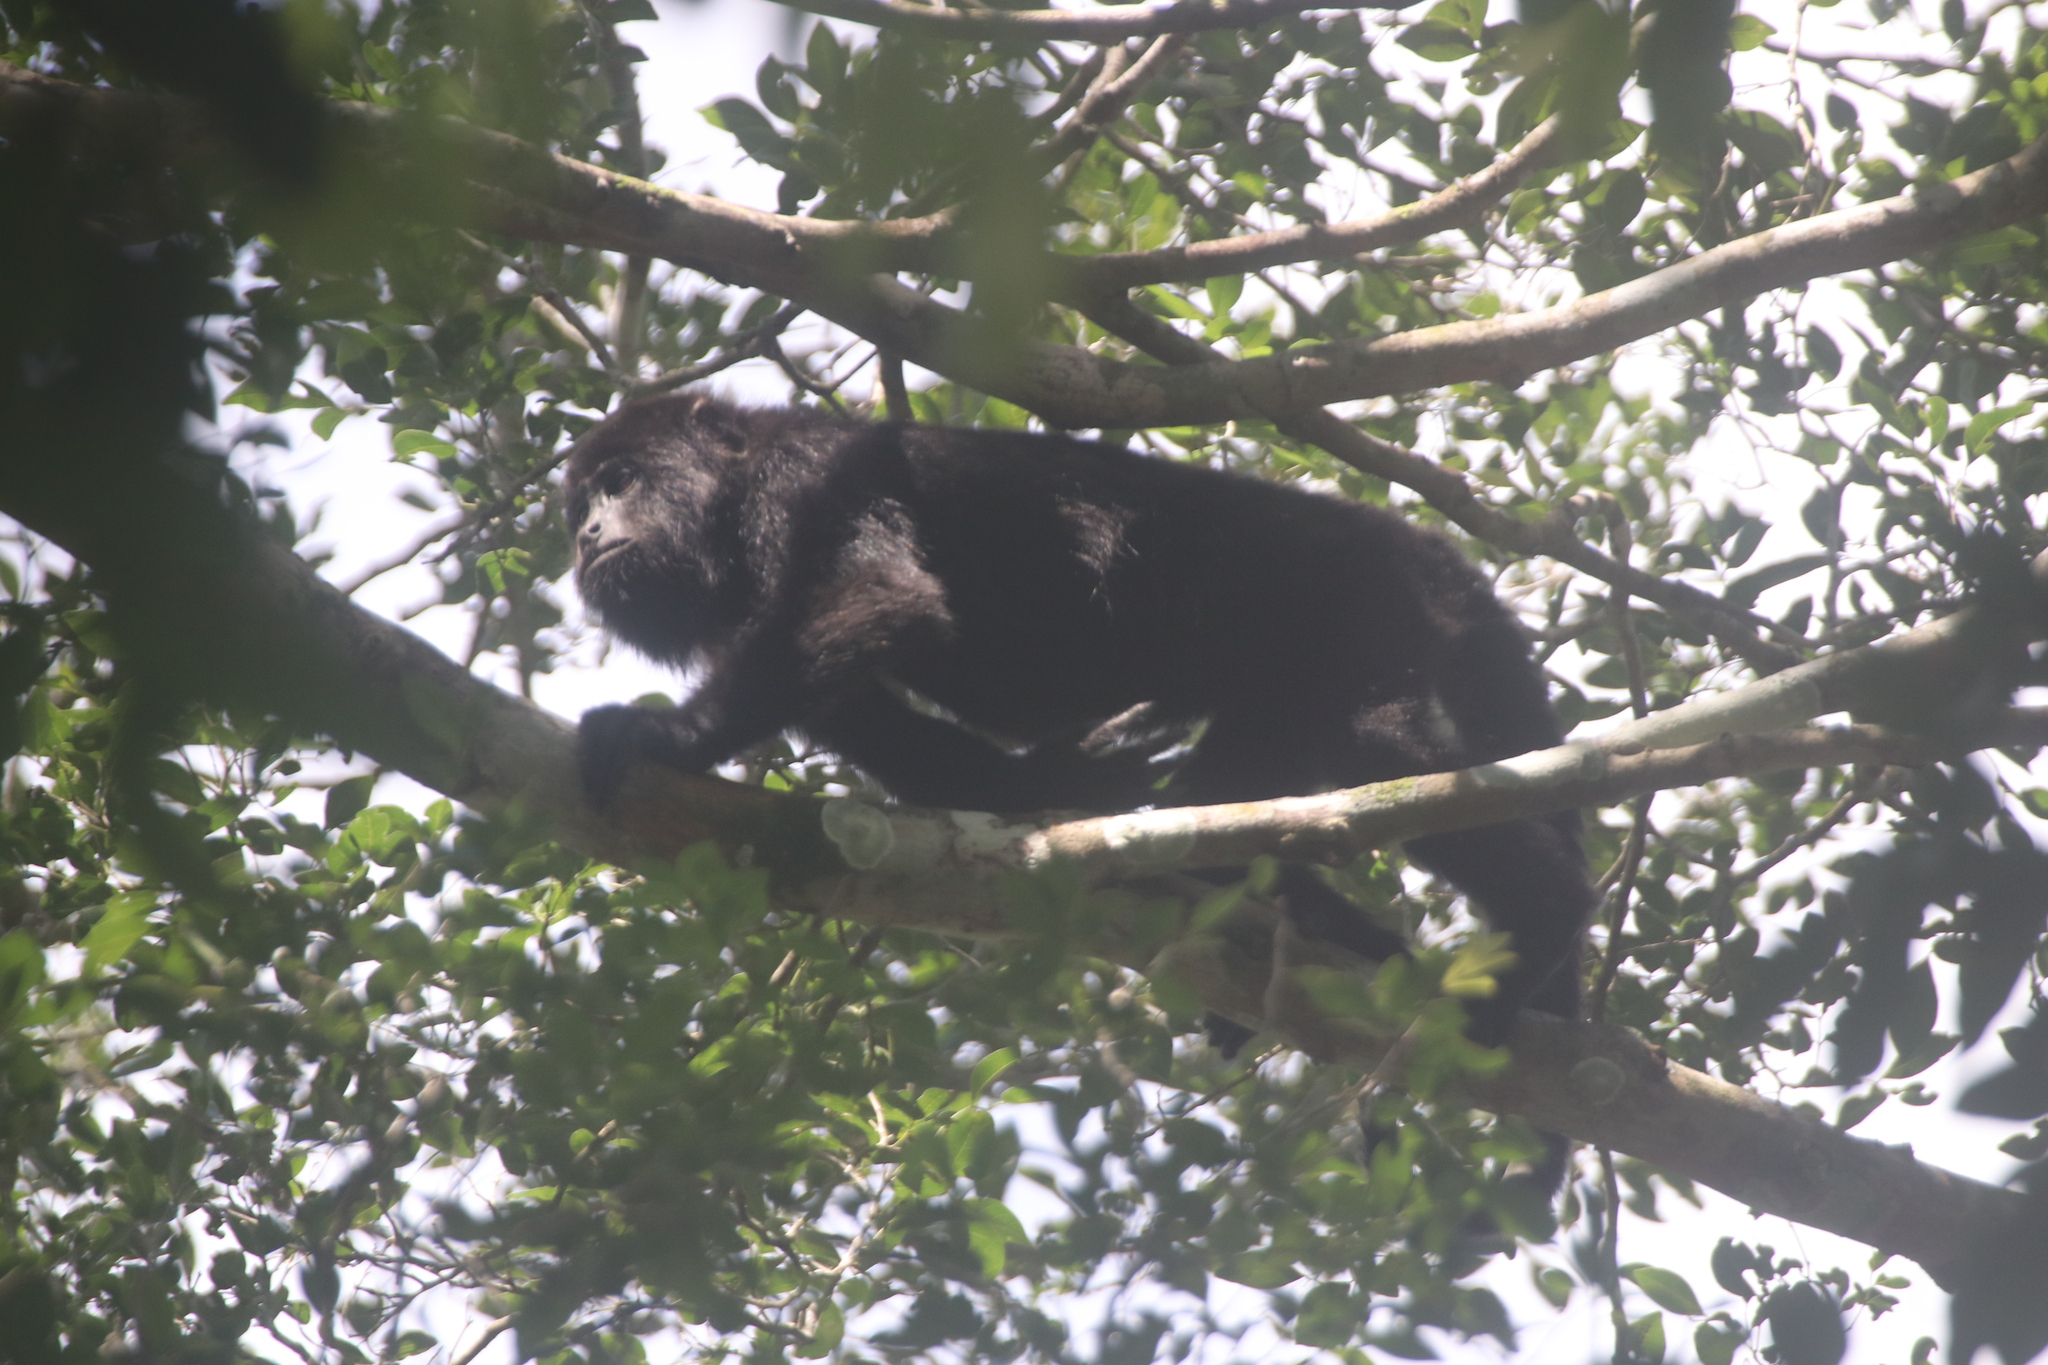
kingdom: Animalia
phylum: Chordata
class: Mammalia
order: Primates
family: Atelidae
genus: Alouatta
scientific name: Alouatta pigra
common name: Guatemalan black howler
